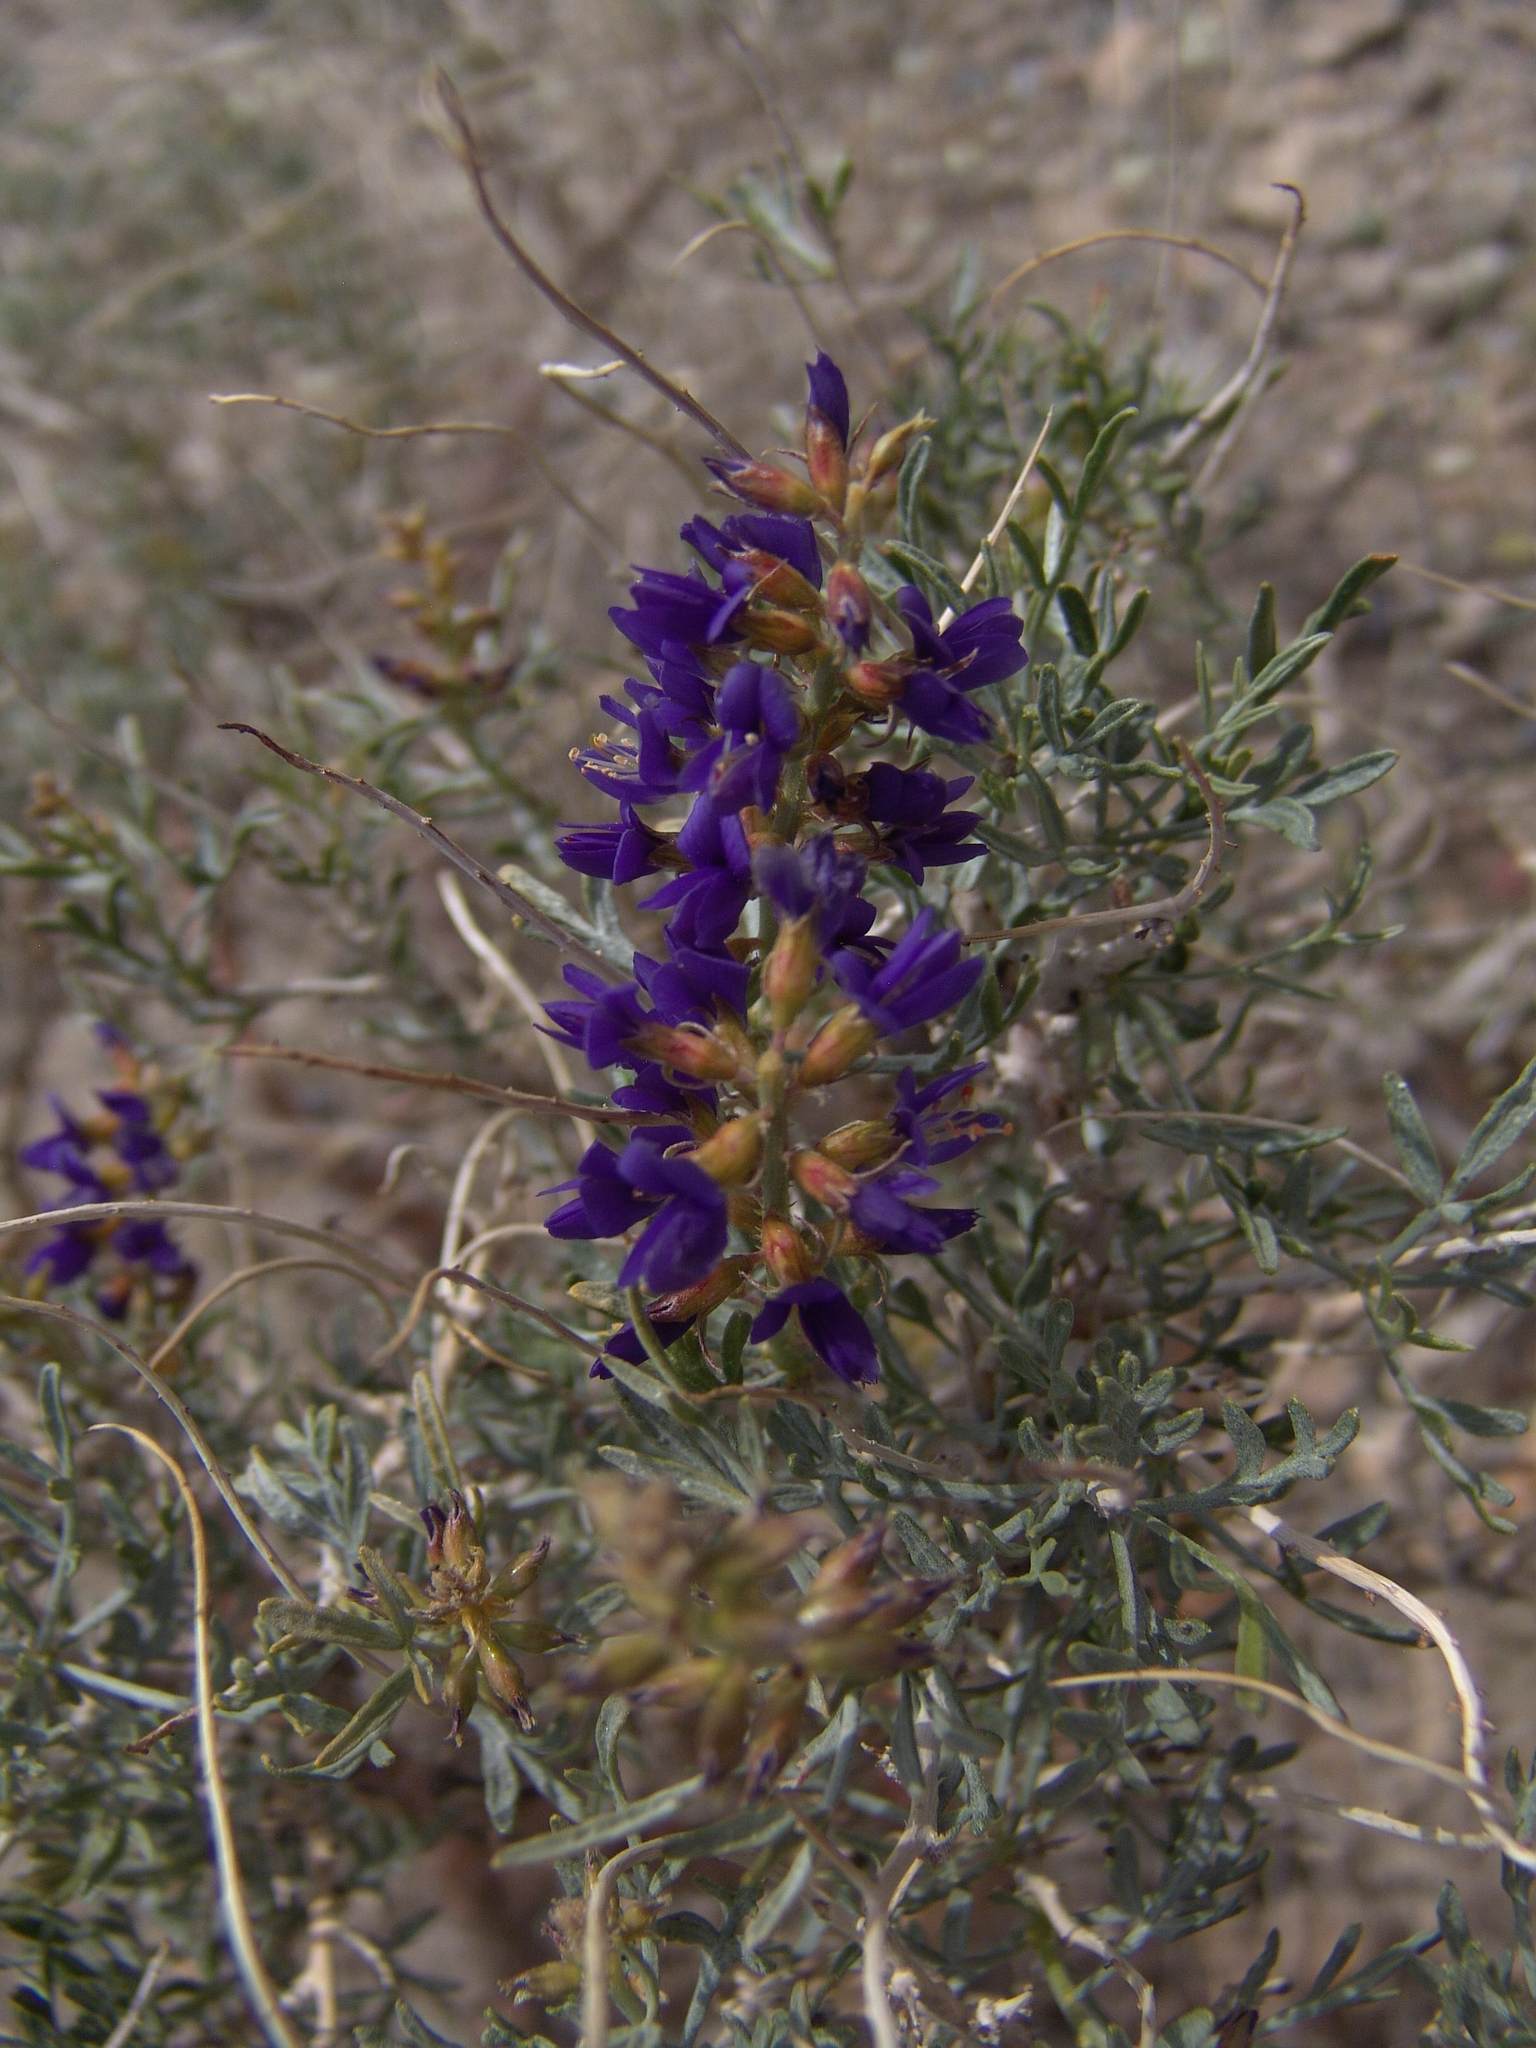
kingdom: Plantae
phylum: Tracheophyta
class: Magnoliopsida
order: Fabales
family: Fabaceae
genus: Psorothamnus
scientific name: Psorothamnus arborescens
